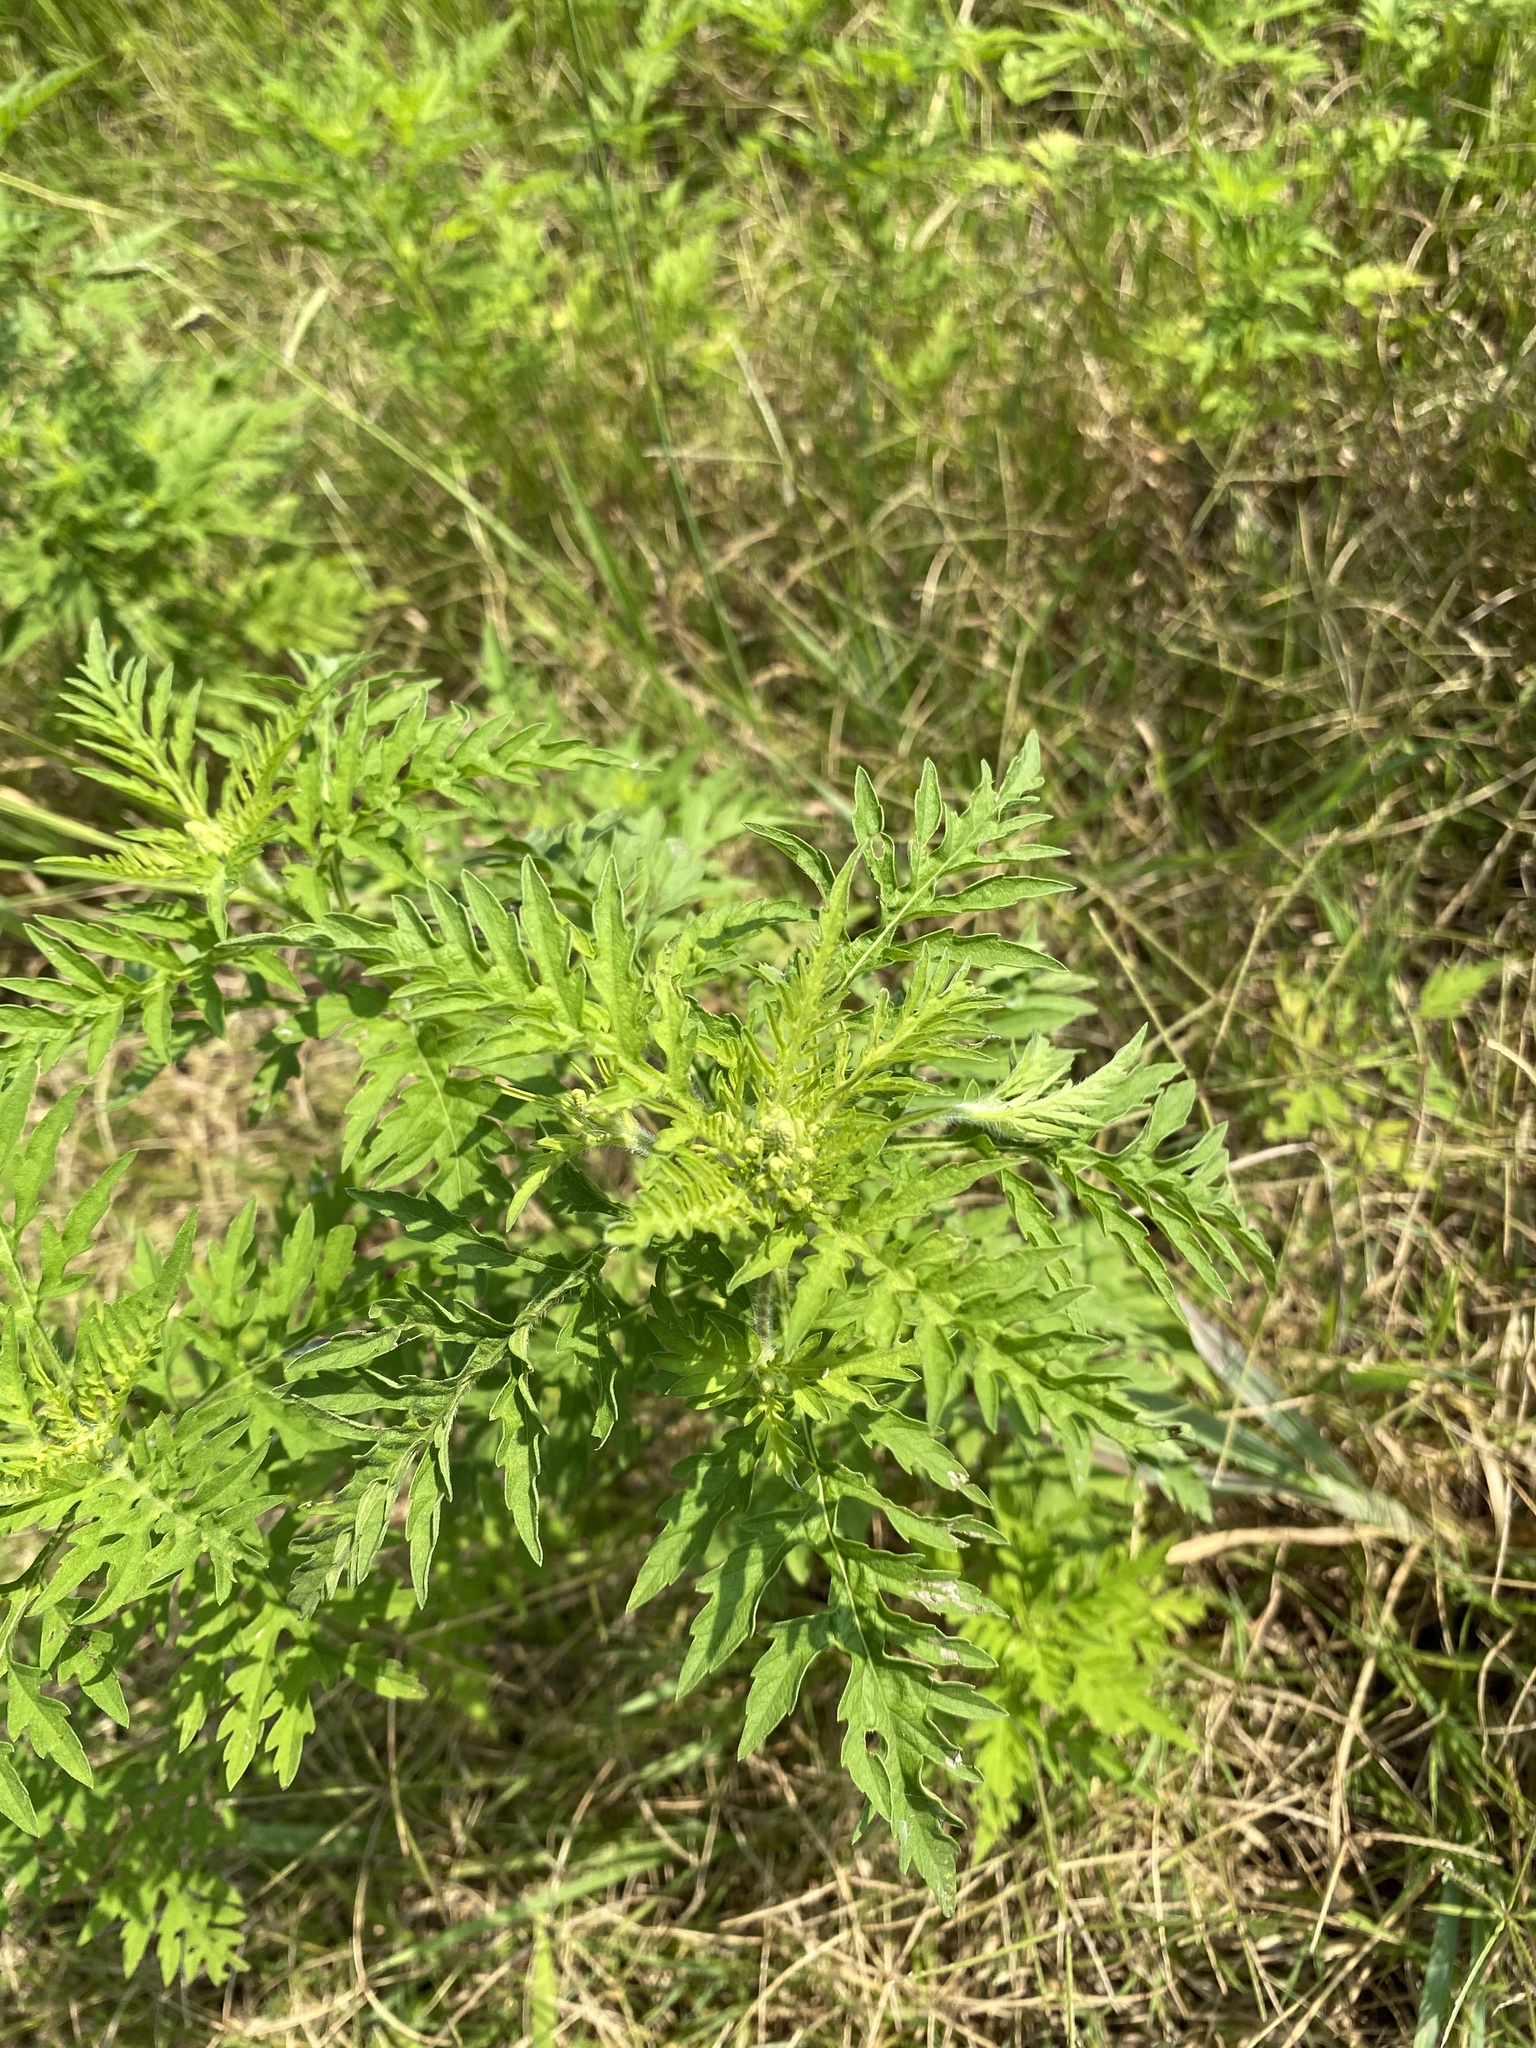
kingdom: Plantae
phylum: Tracheophyta
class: Magnoliopsida
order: Asterales
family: Asteraceae
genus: Ambrosia
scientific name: Ambrosia artemisiifolia
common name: Annual ragweed
